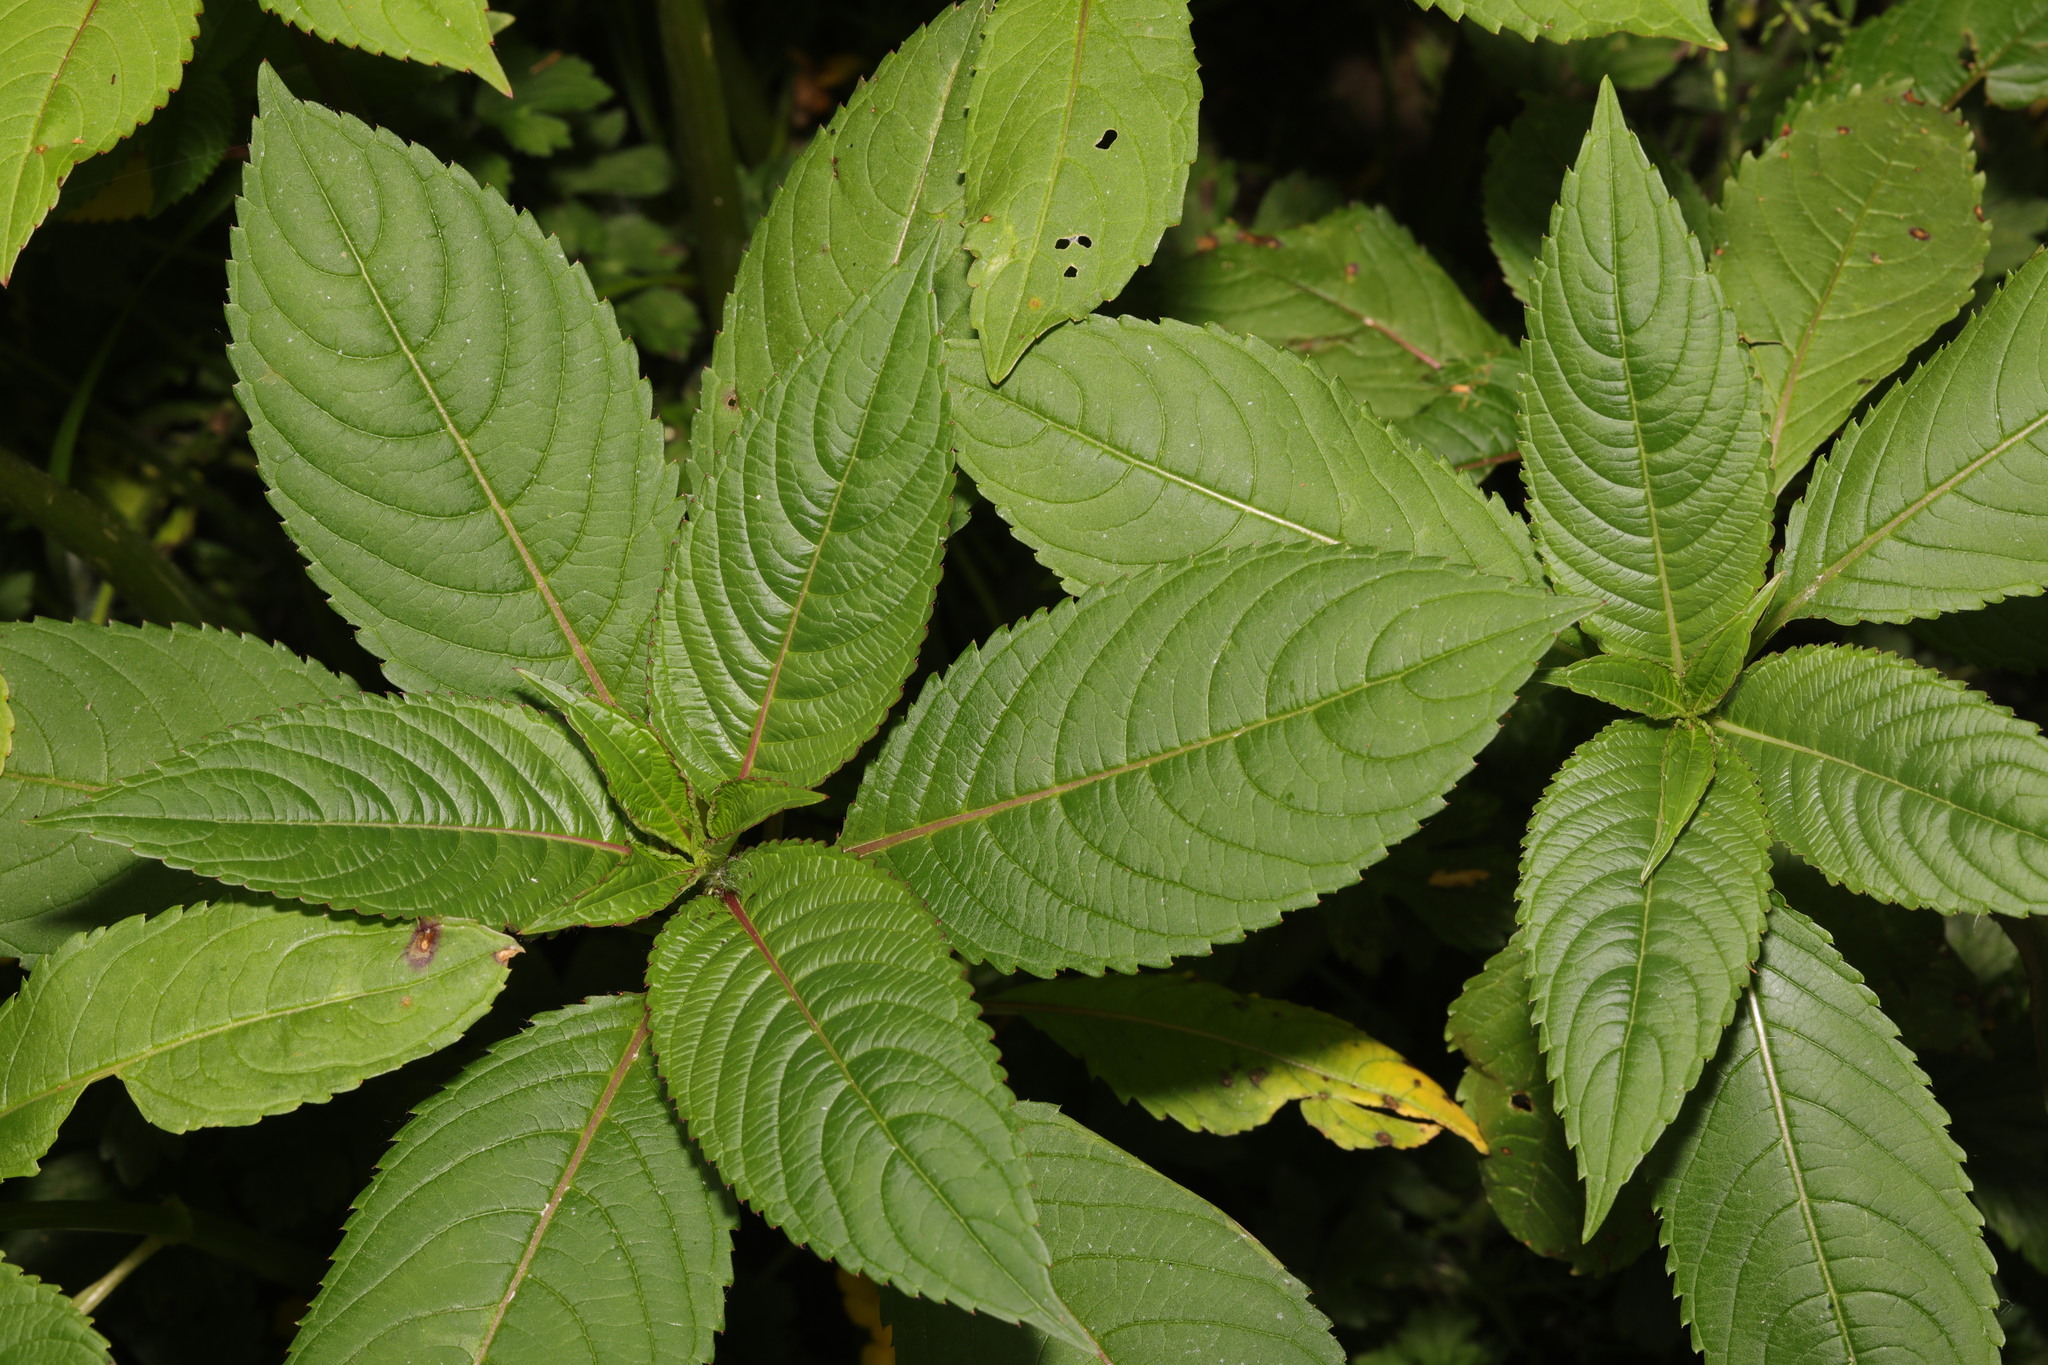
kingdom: Plantae
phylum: Tracheophyta
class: Magnoliopsida
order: Ericales
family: Balsaminaceae
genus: Impatiens
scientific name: Impatiens glandulifera
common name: Himalayan balsam
